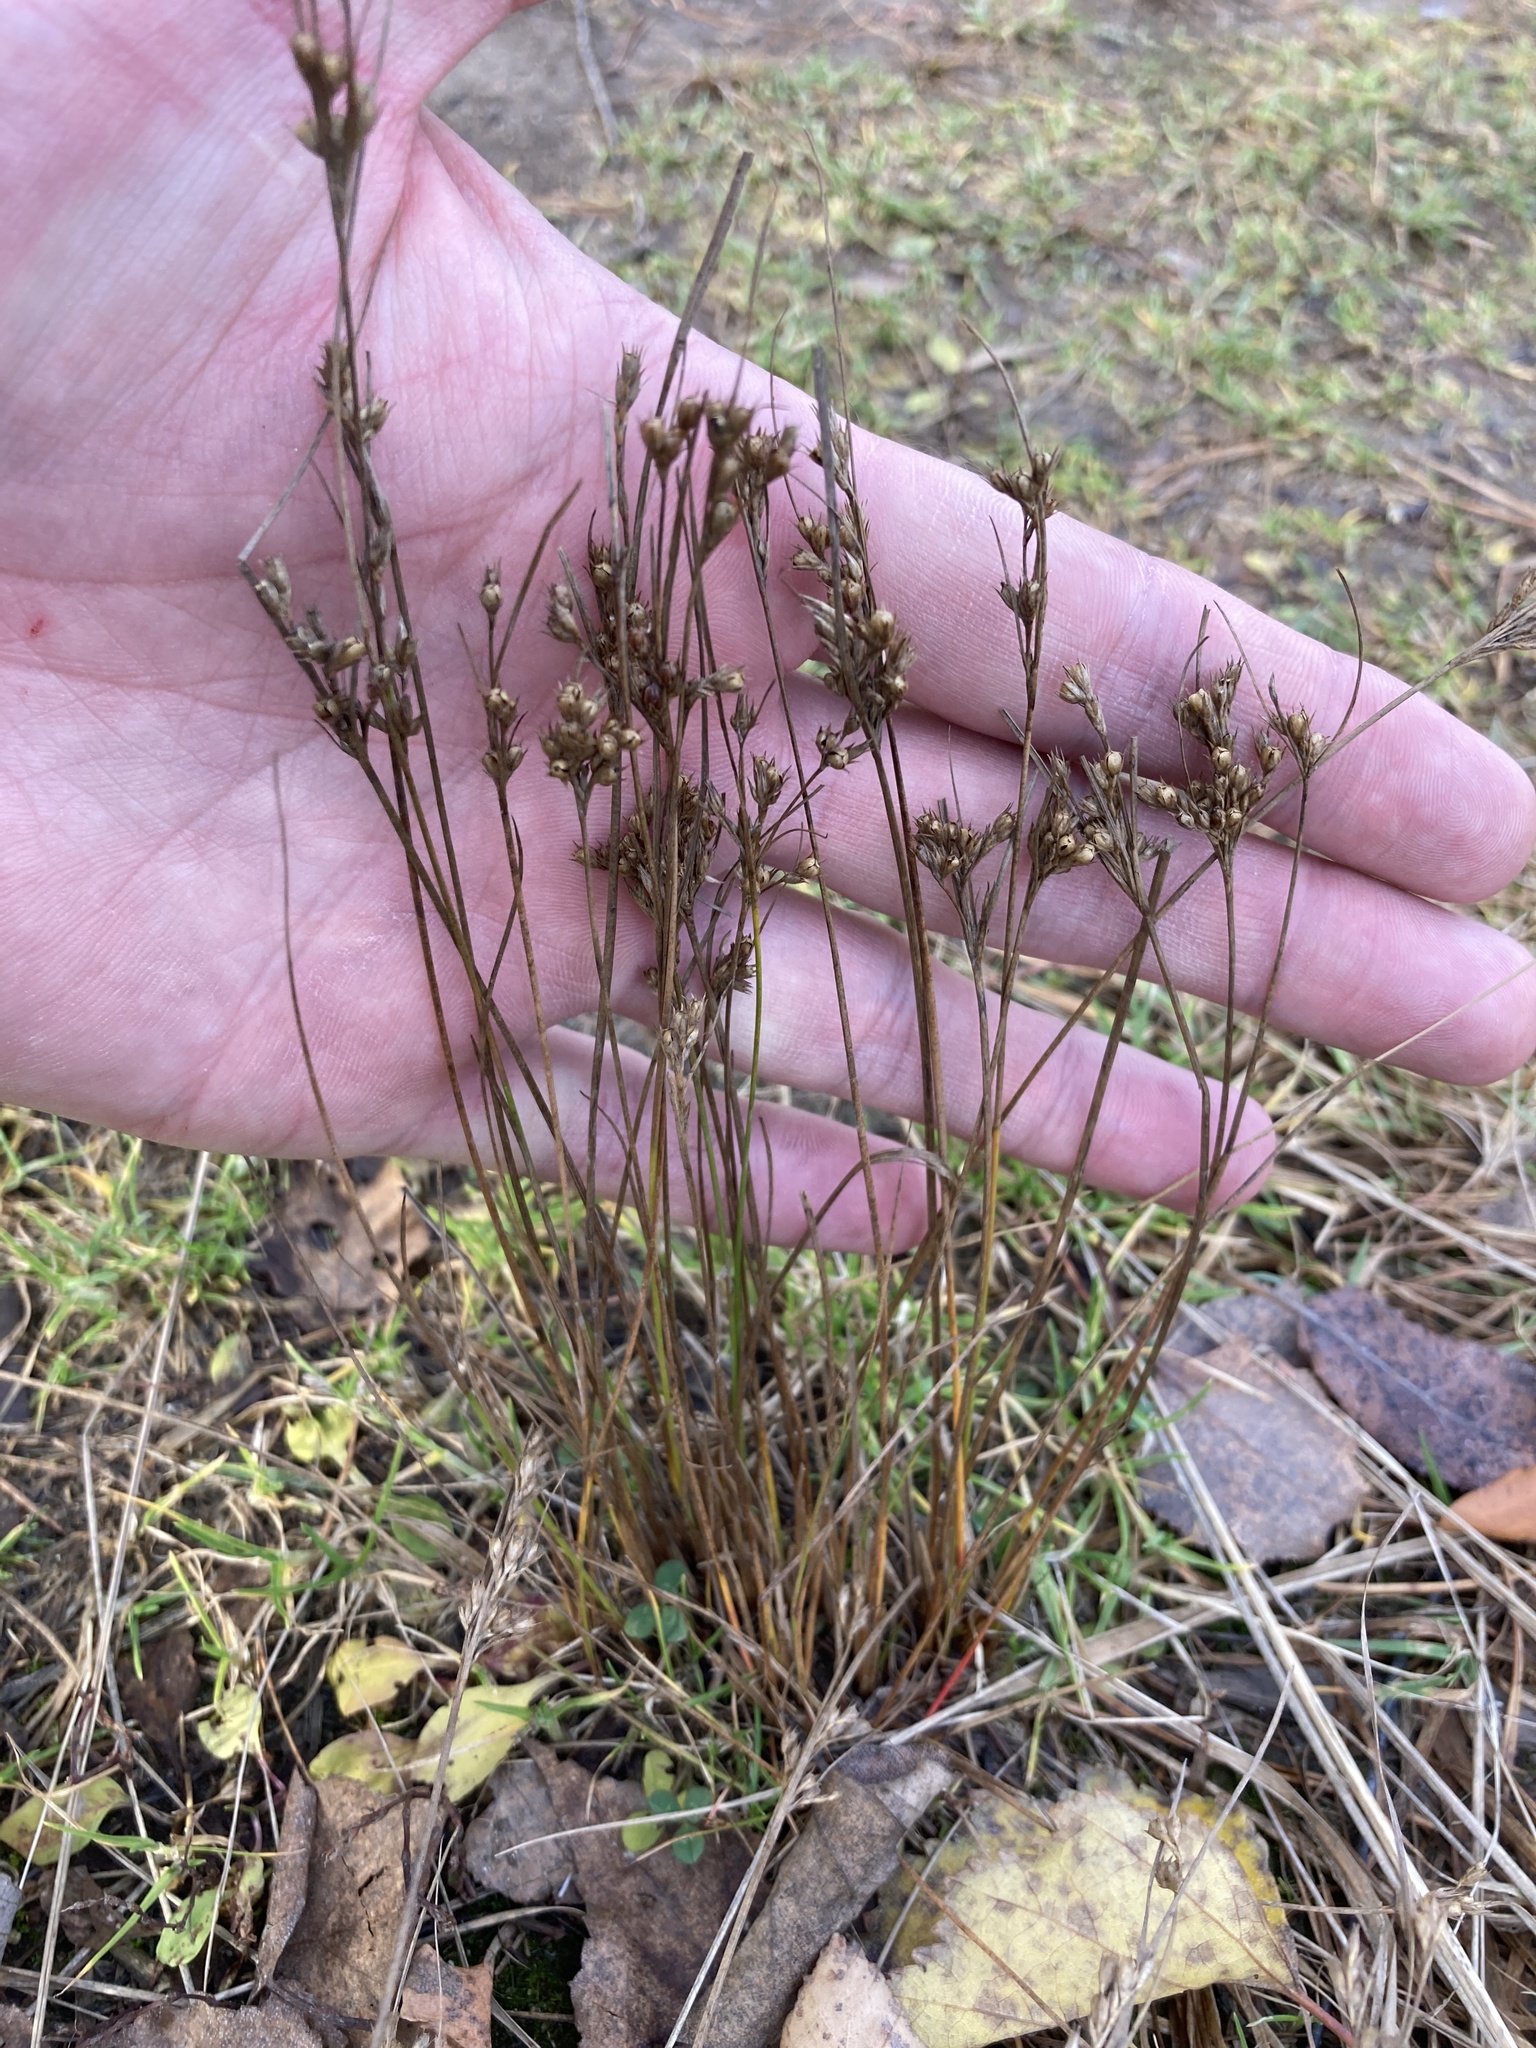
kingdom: Plantae
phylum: Tracheophyta
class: Liliopsida
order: Poales
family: Juncaceae
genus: Juncus
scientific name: Juncus tenuis
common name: Slender rush
